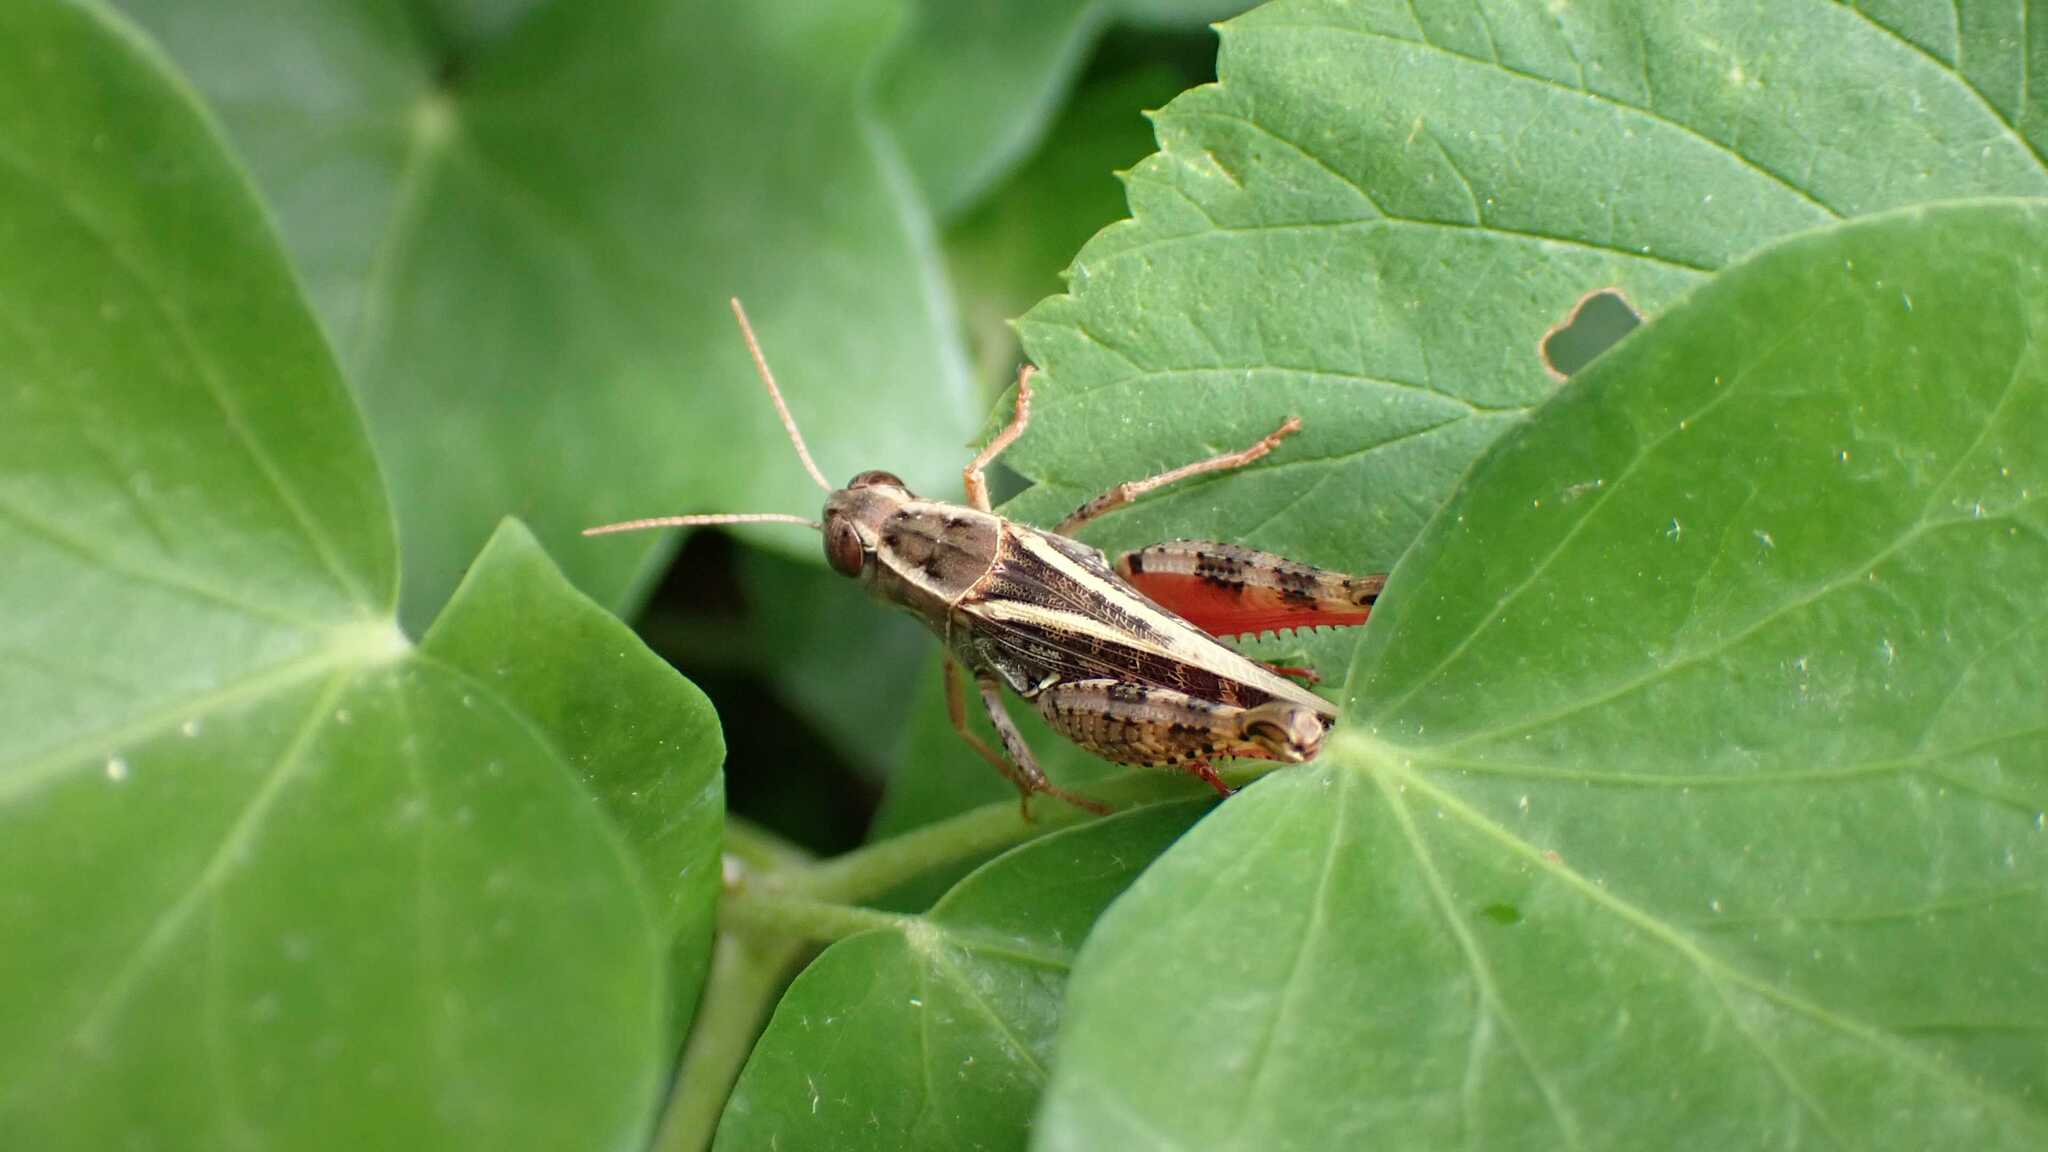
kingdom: Animalia
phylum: Arthropoda
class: Insecta
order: Orthoptera
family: Acrididae
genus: Calliptamus
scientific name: Calliptamus italicus
